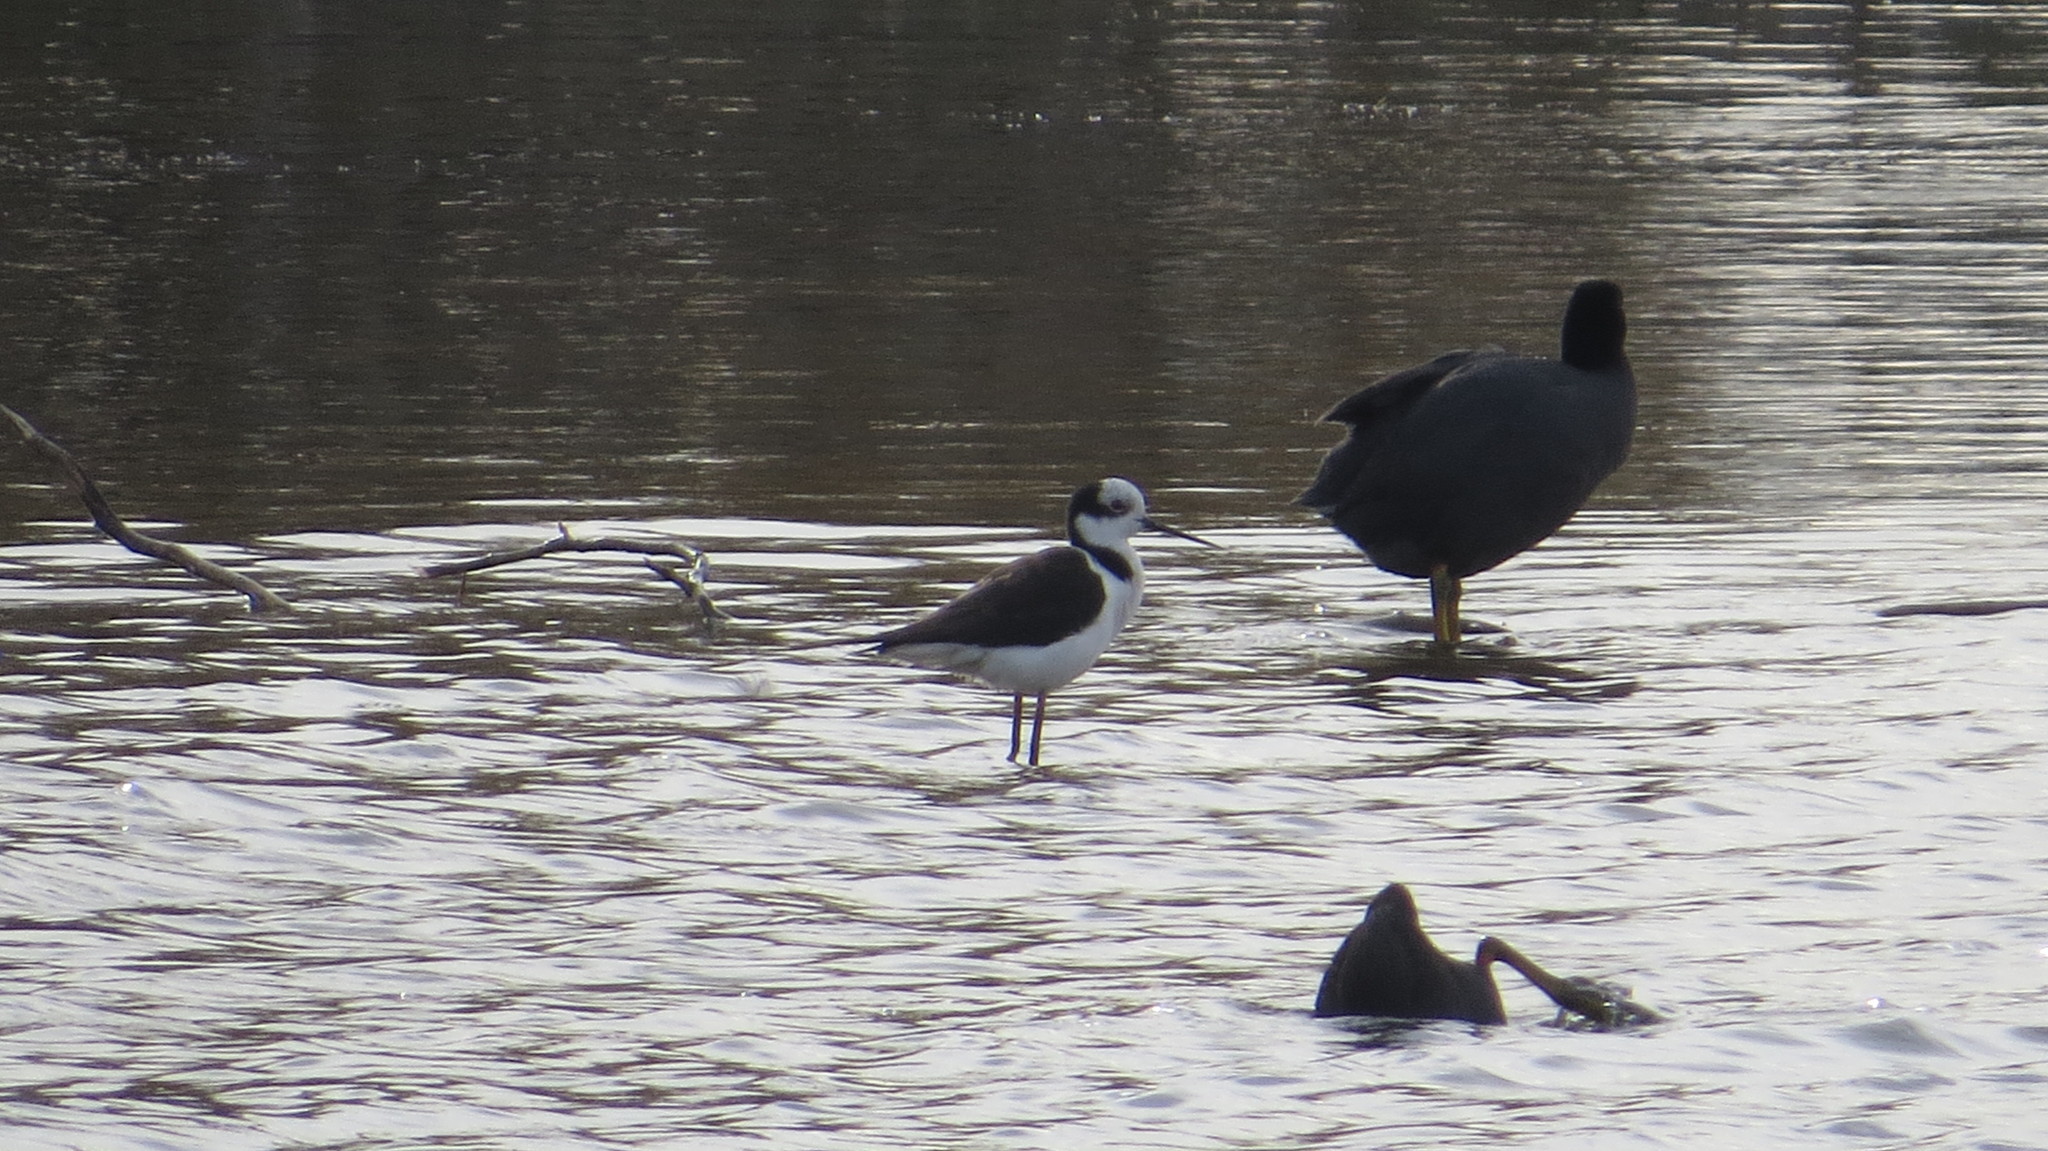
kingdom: Animalia
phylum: Chordata
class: Aves
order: Charadriiformes
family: Recurvirostridae
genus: Himantopus
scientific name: Himantopus mexicanus
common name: Black-necked stilt
